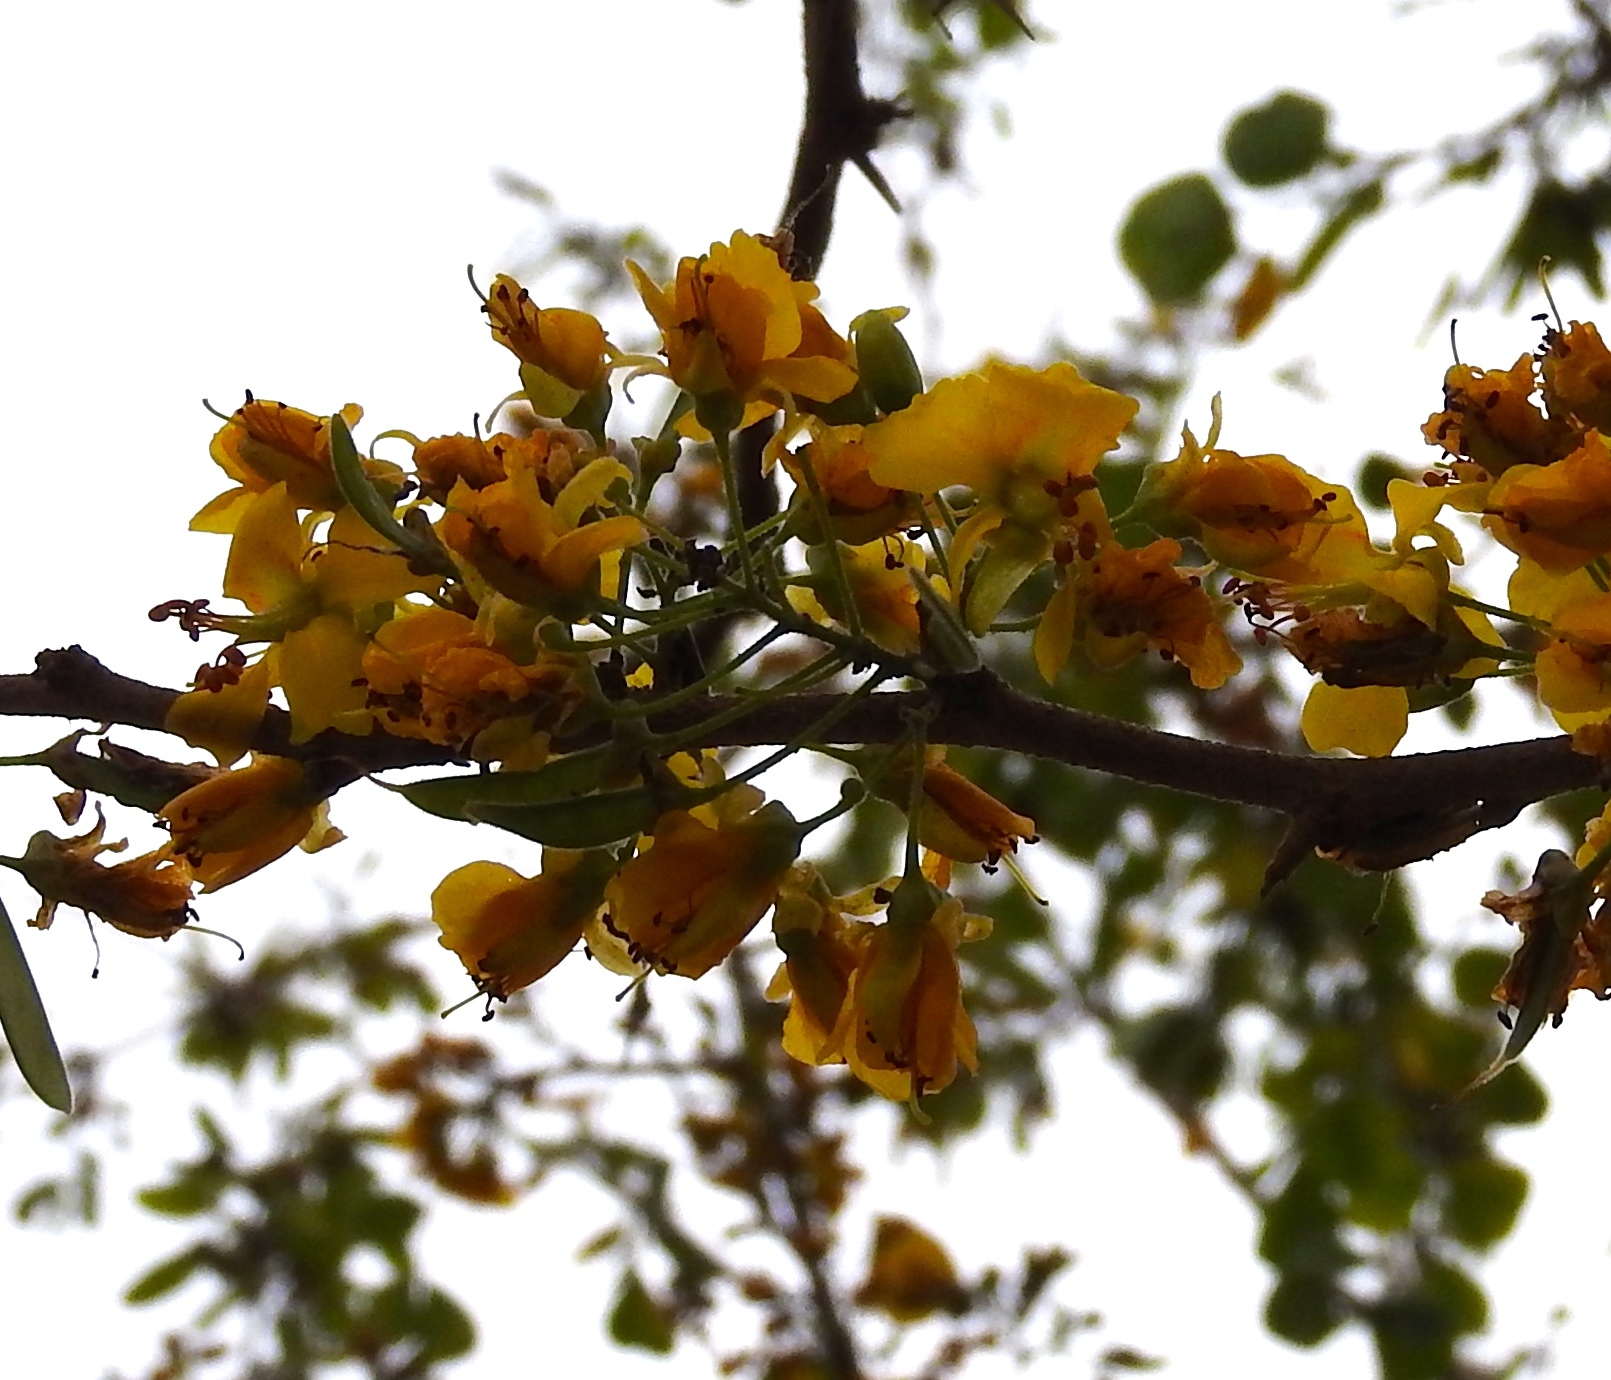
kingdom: Plantae
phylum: Tracheophyta
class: Magnoliopsida
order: Fabales
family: Fabaceae
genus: Haematoxylum
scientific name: Haematoxylum brasiletto
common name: Peachwood
